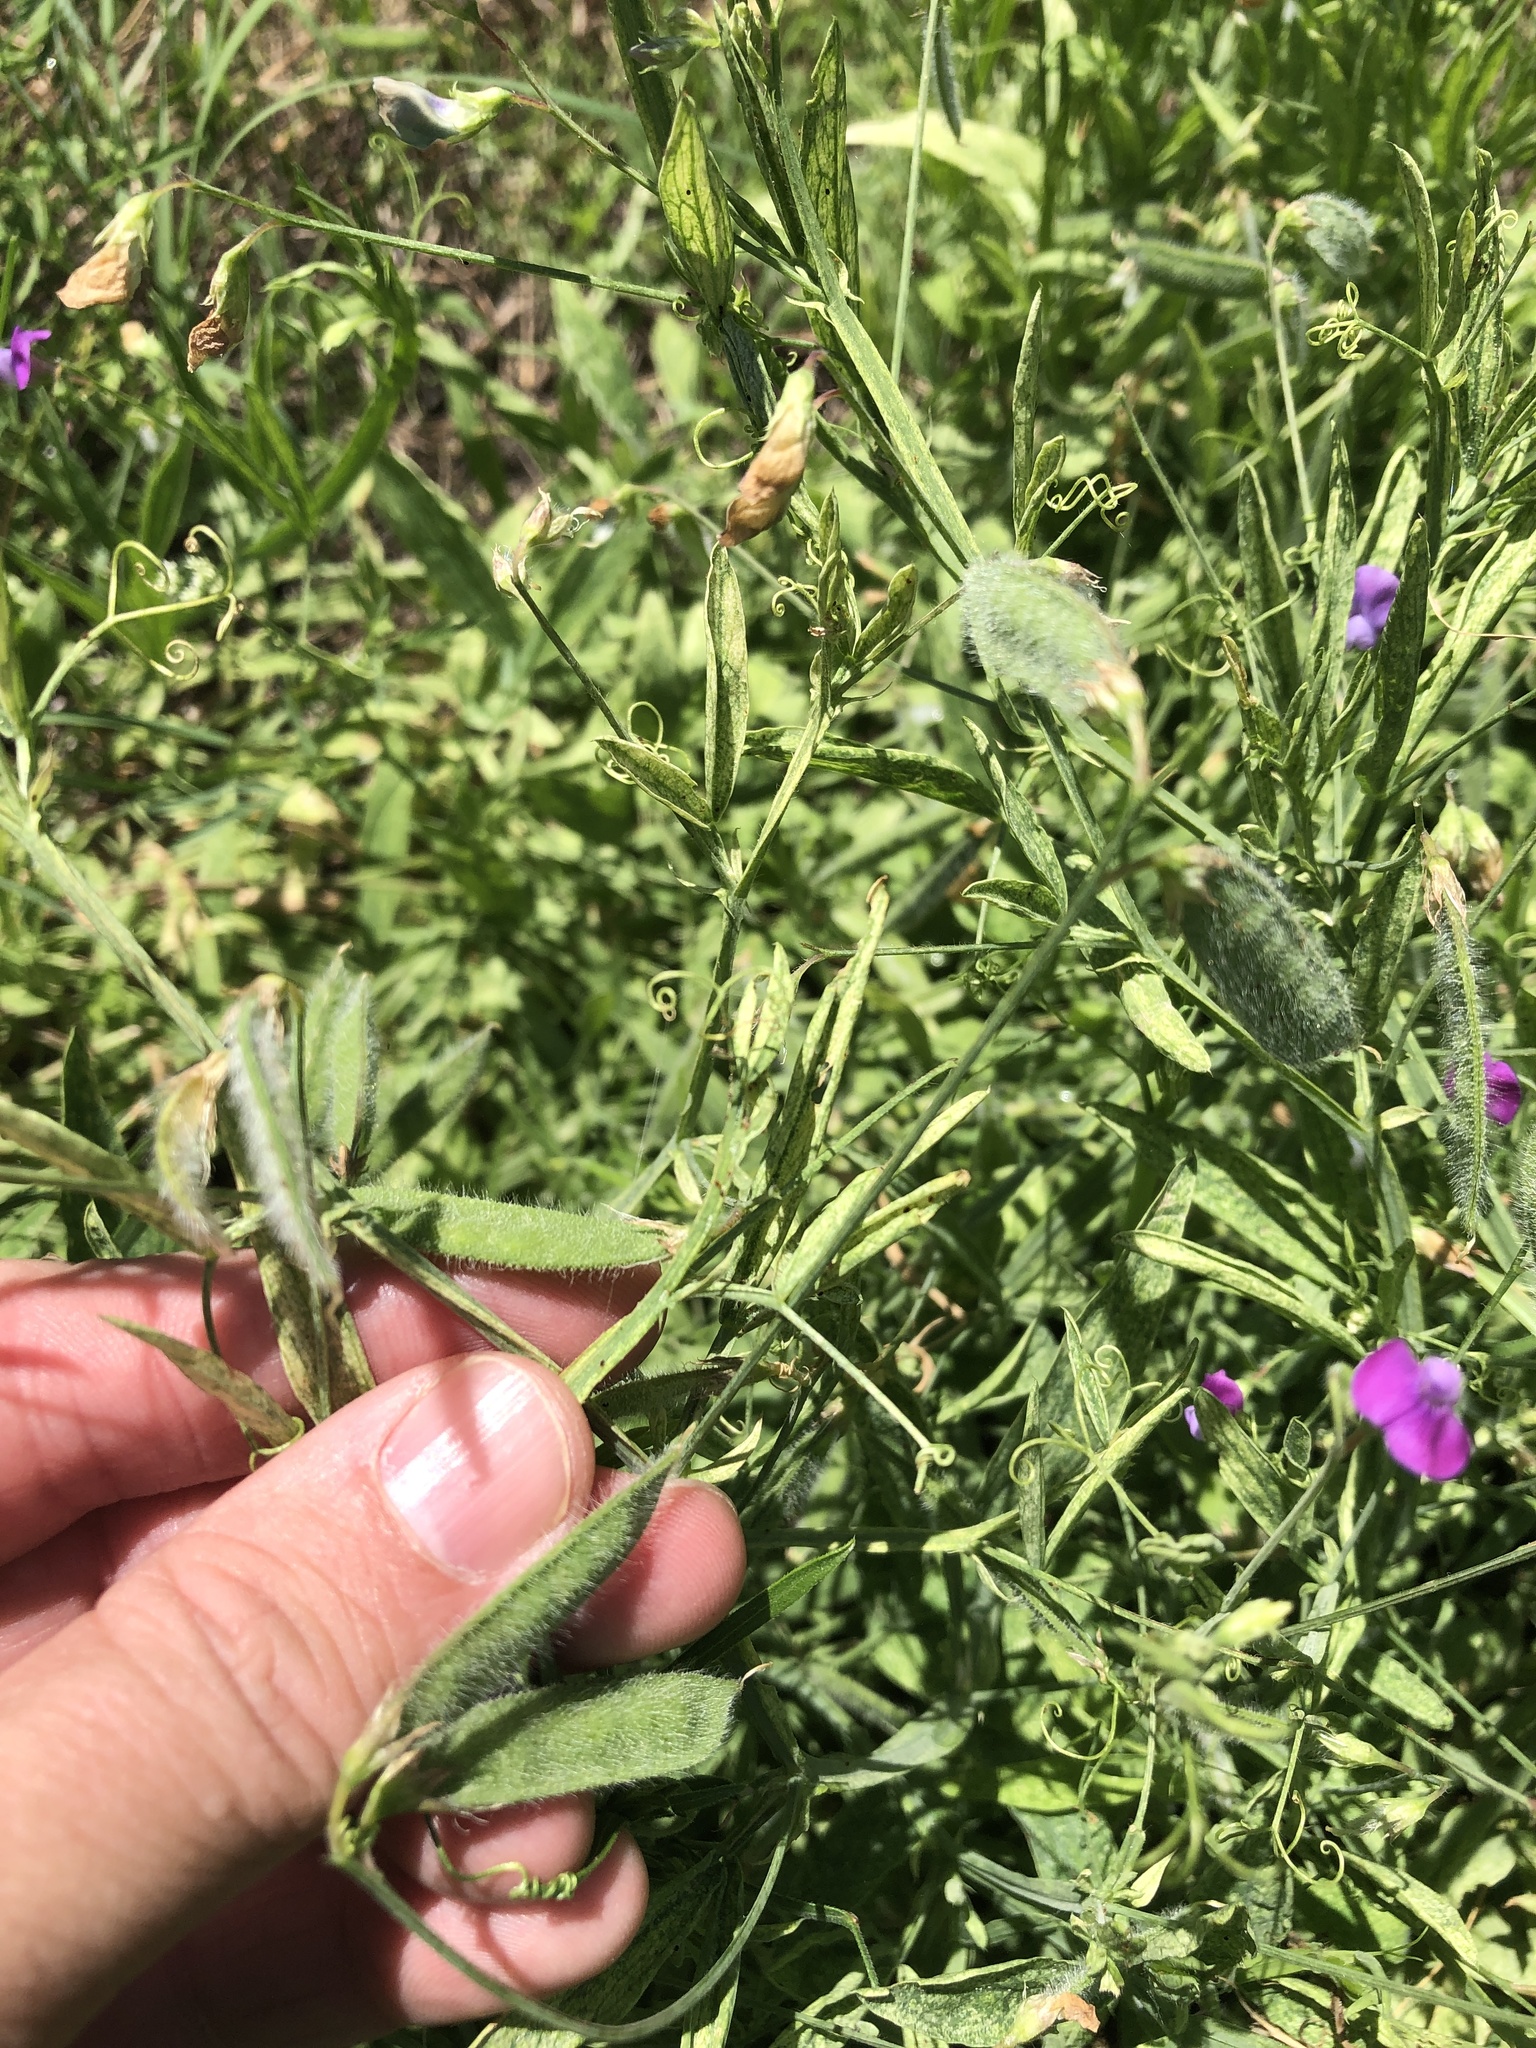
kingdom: Plantae
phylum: Tracheophyta
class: Magnoliopsida
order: Fabales
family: Fabaceae
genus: Lathyrus
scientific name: Lathyrus hirsutus
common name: Hairy vetchling
